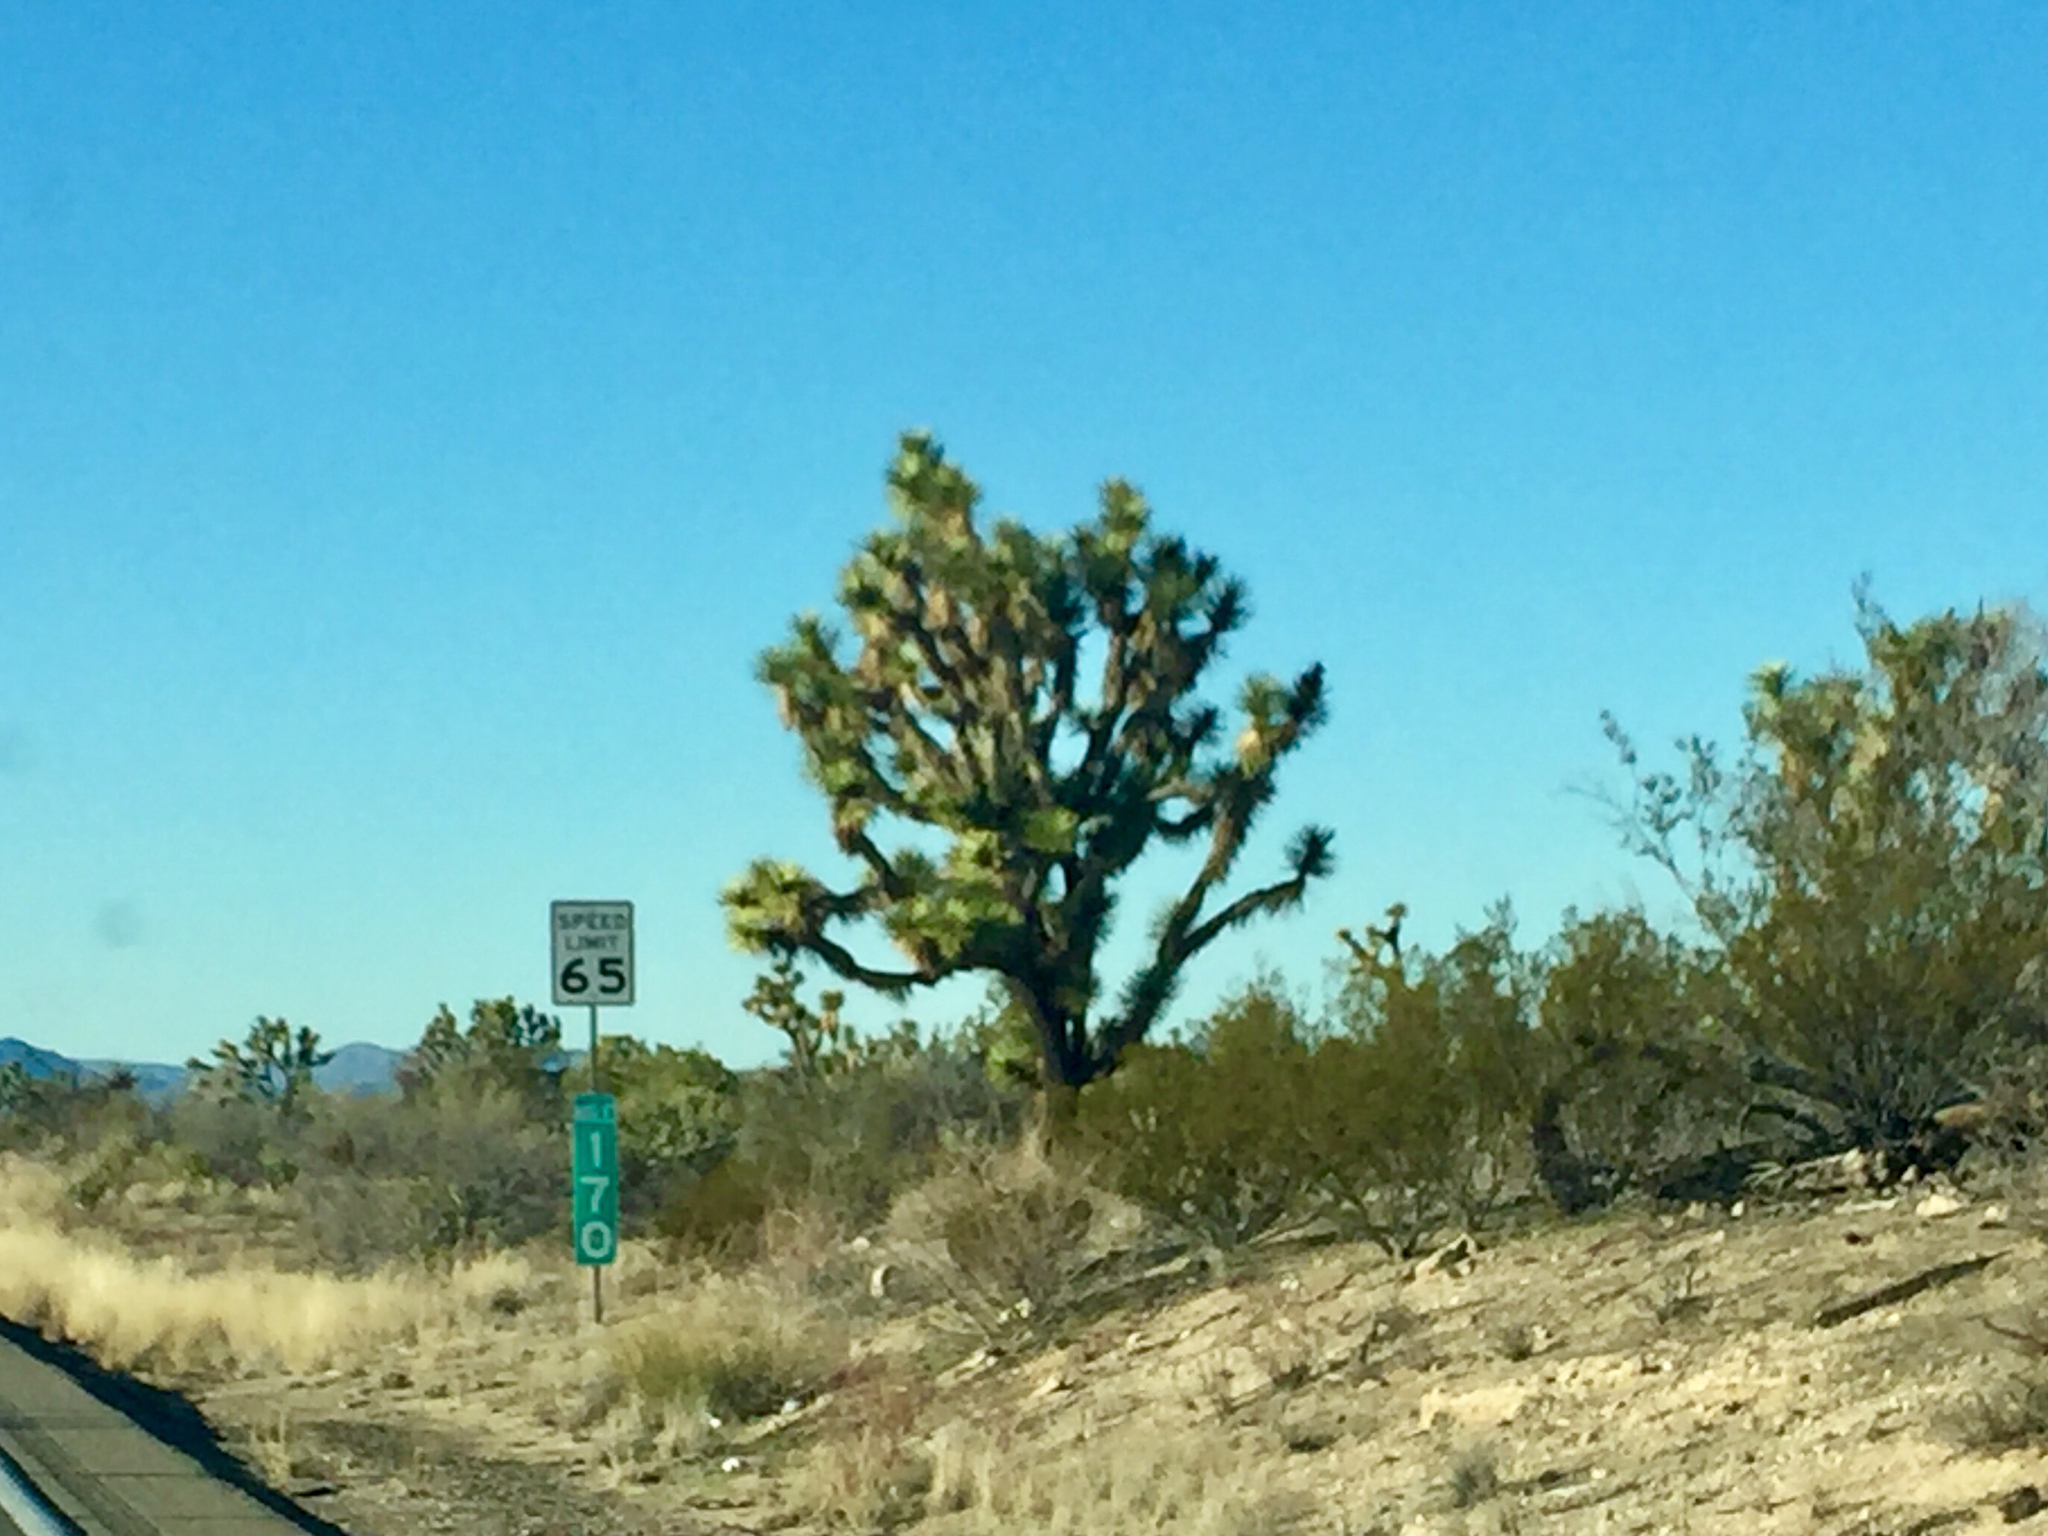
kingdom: Plantae
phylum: Tracheophyta
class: Liliopsida
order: Asparagales
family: Asparagaceae
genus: Yucca
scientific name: Yucca brevifolia
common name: Joshua tree
